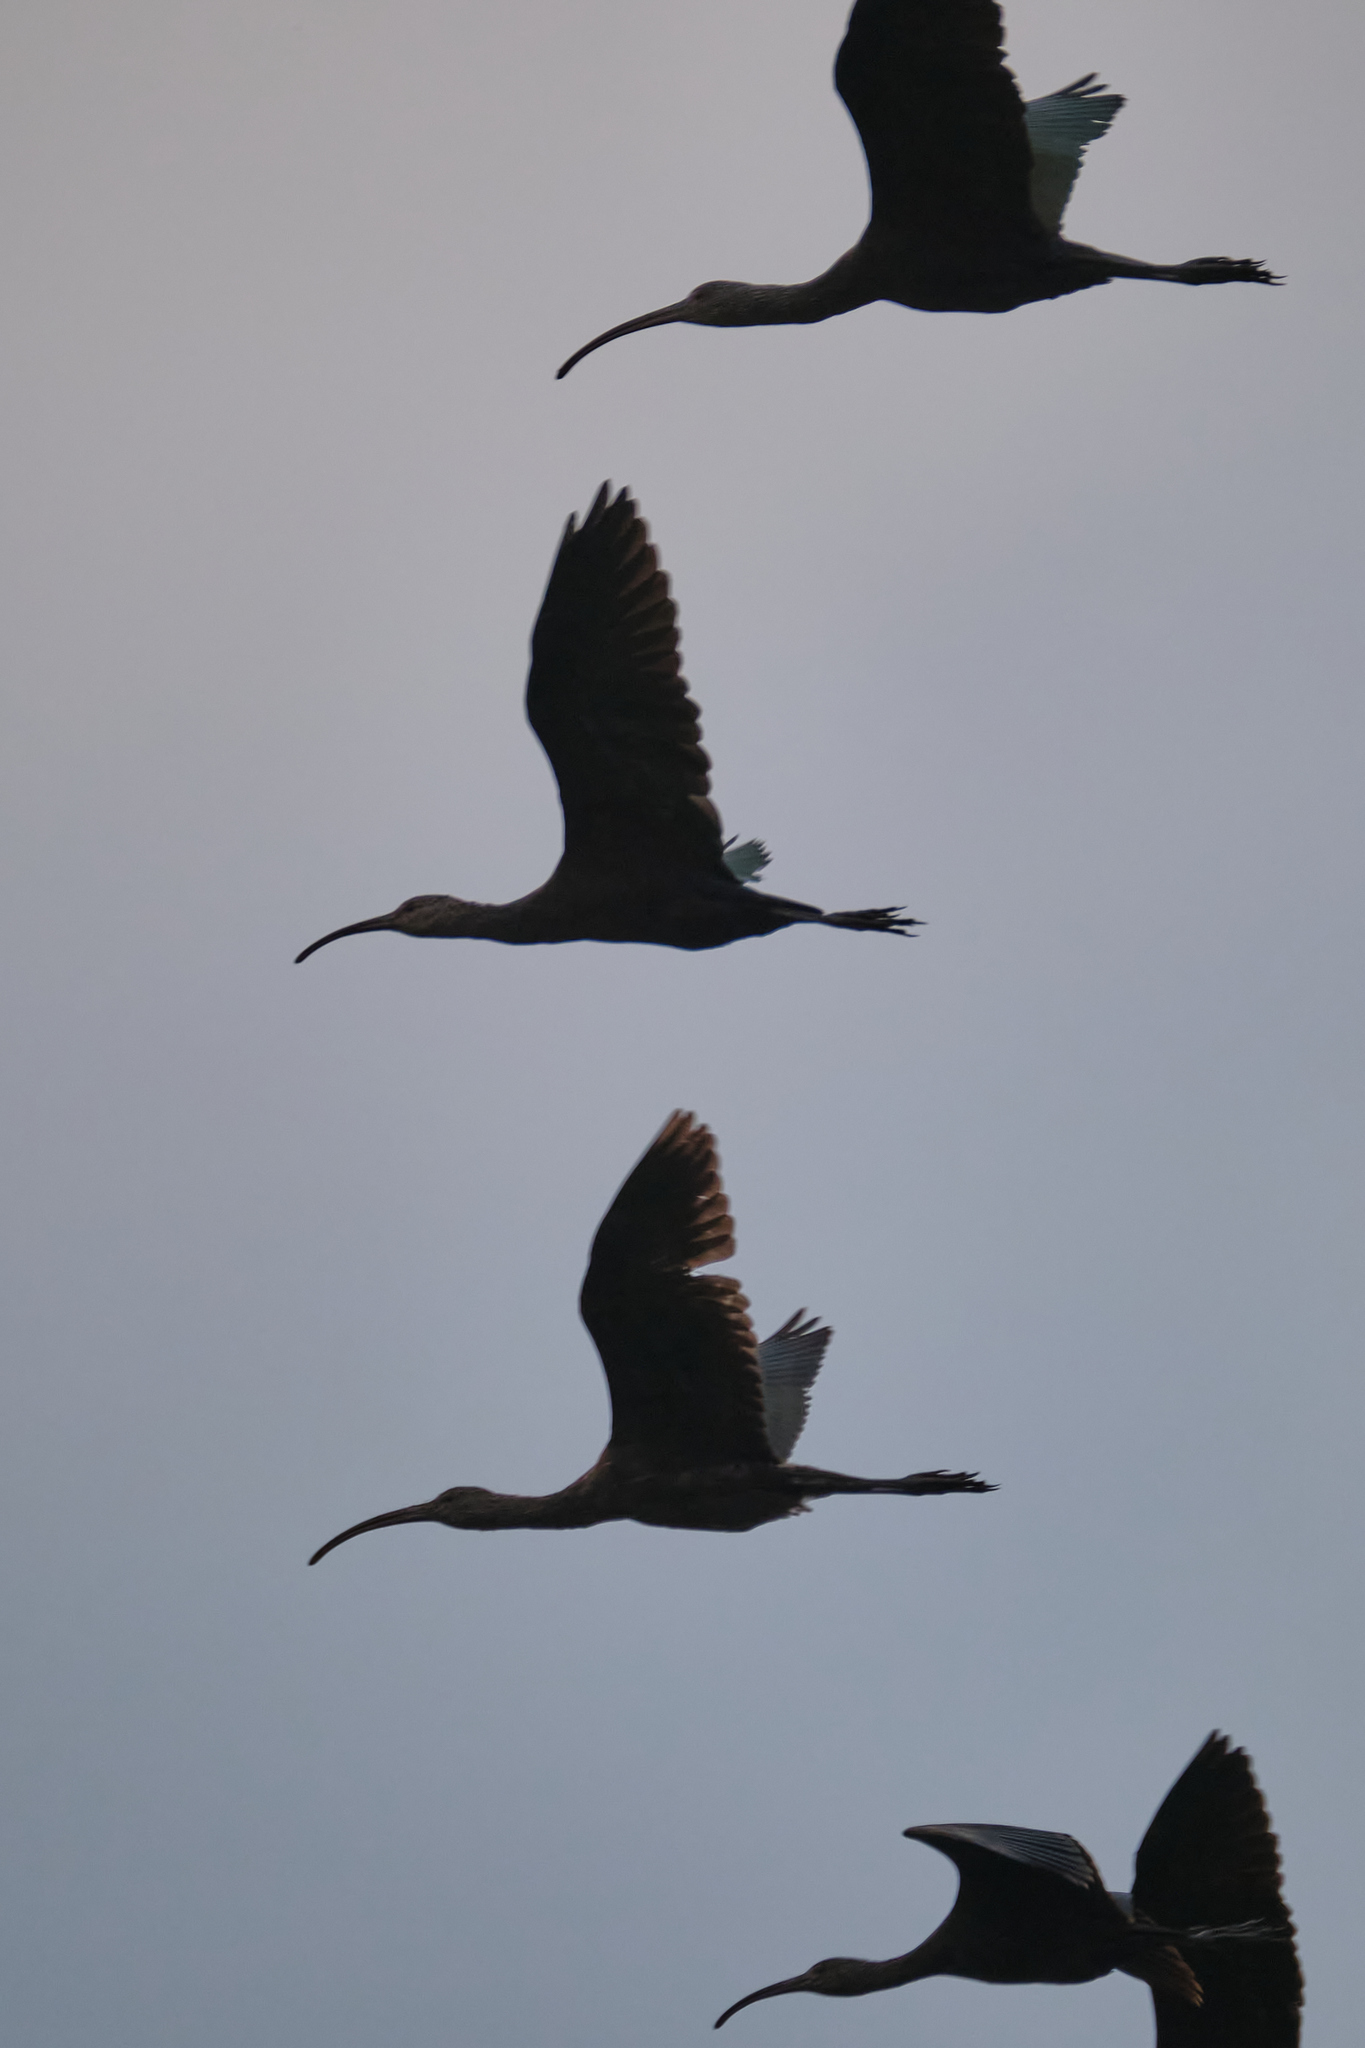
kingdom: Animalia
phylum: Chordata
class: Aves
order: Pelecaniformes
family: Threskiornithidae
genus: Plegadis
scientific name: Plegadis chihi
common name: White-faced ibis
